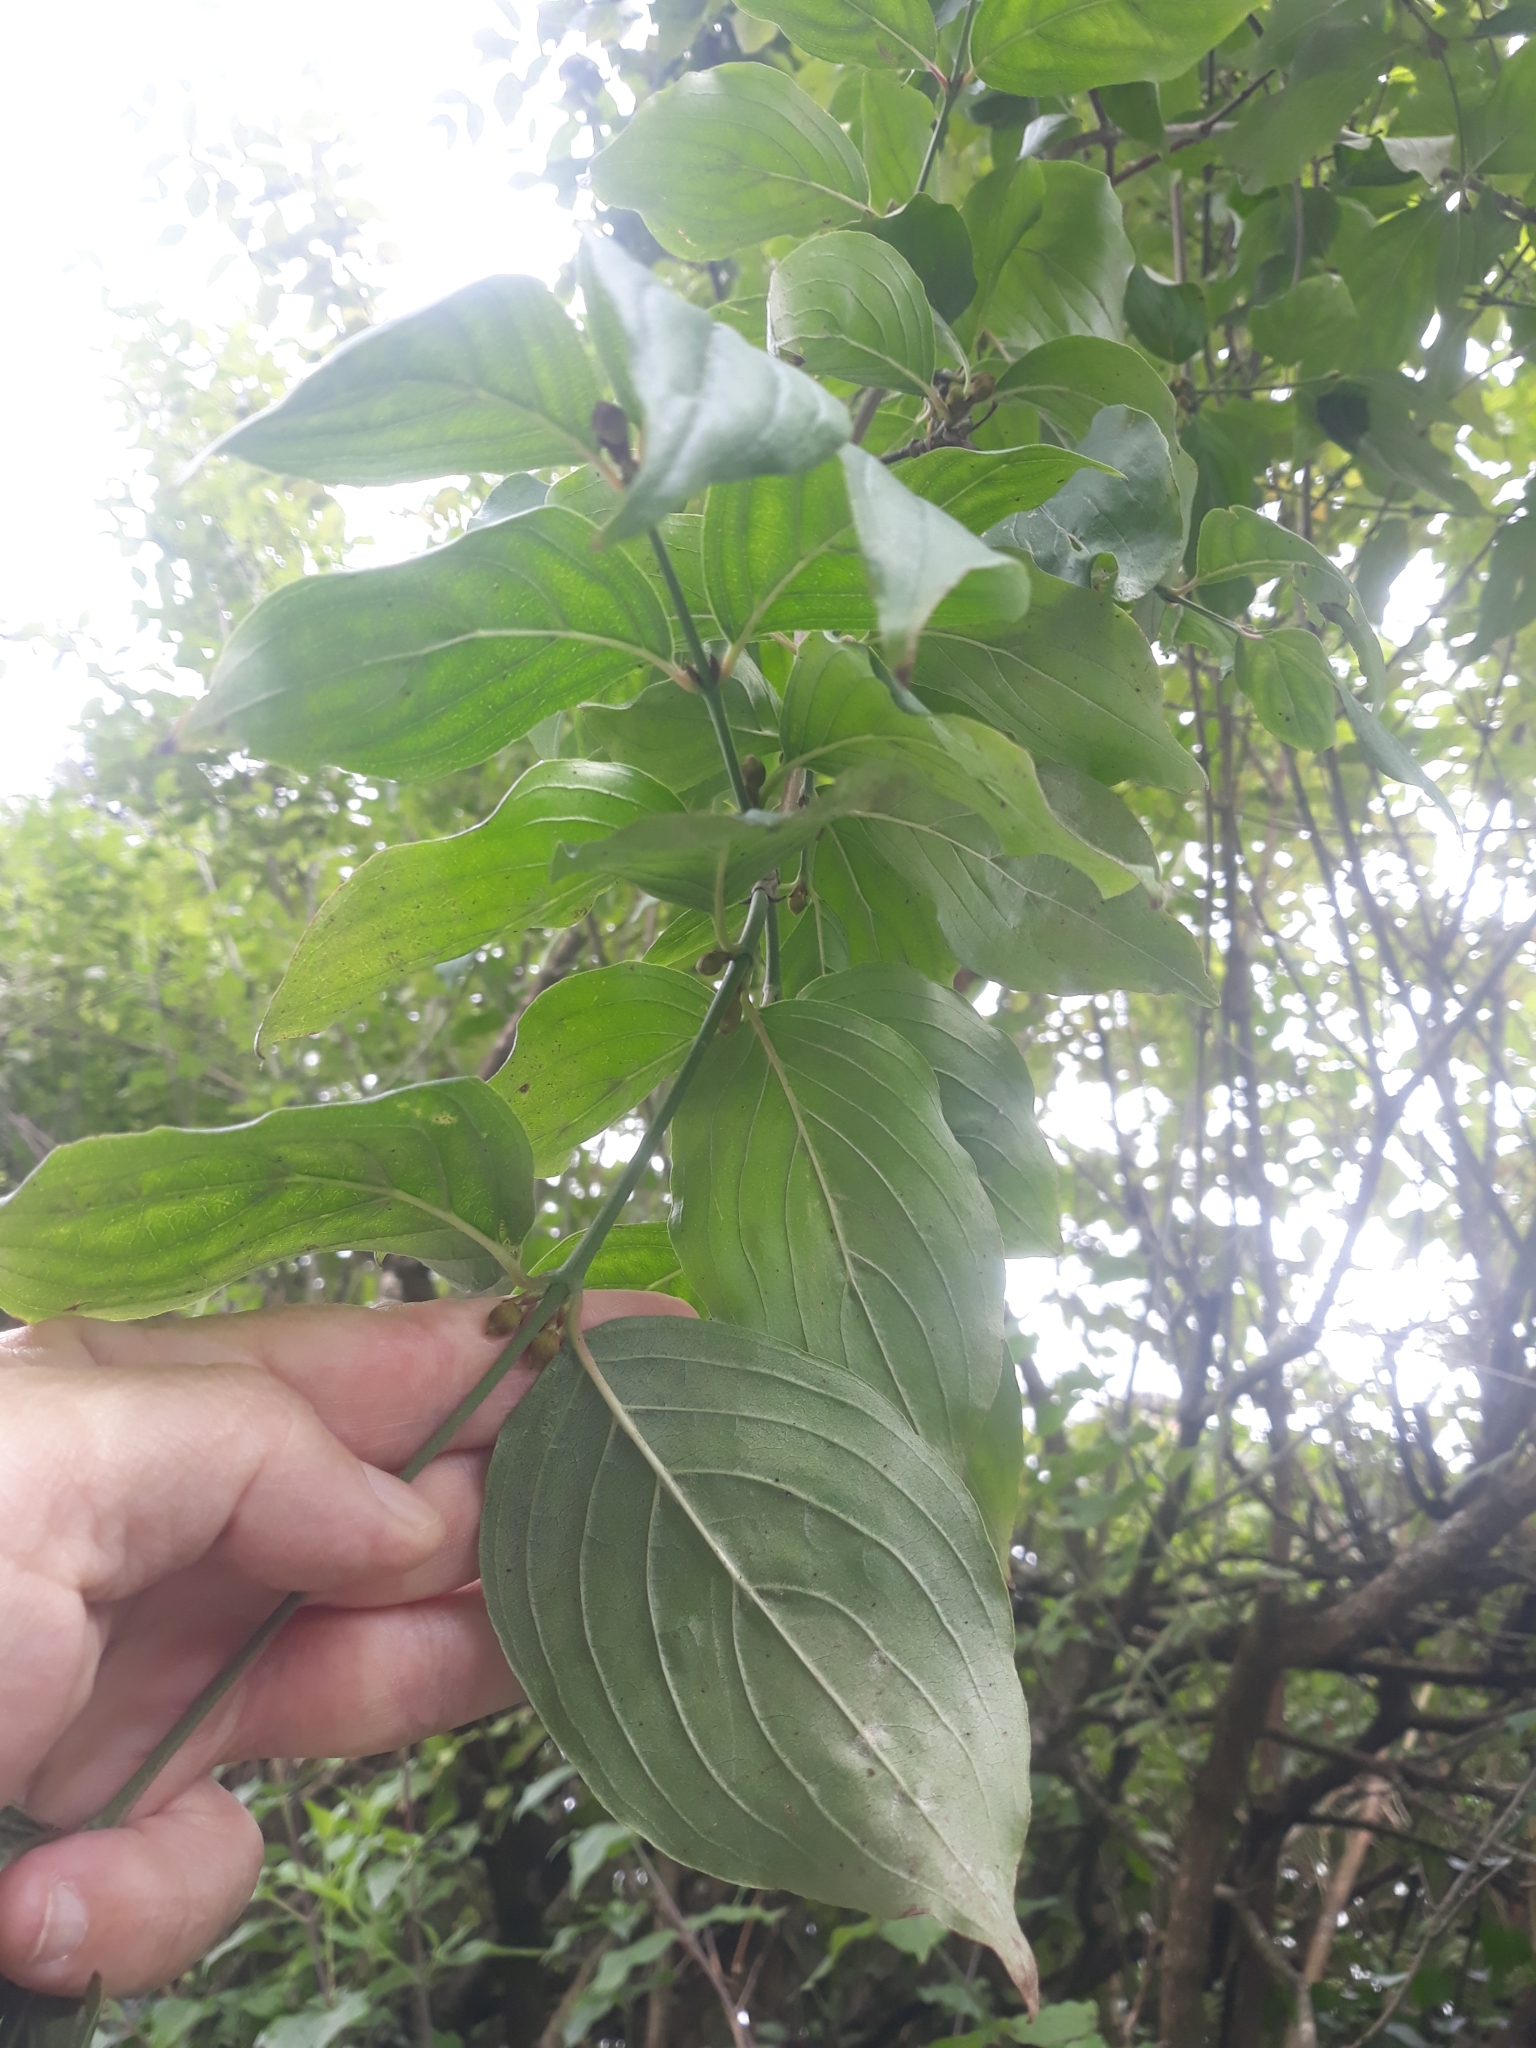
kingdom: Plantae
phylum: Tracheophyta
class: Magnoliopsida
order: Cornales
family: Cornaceae
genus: Cornus
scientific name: Cornus mas
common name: Cornelian-cherry
